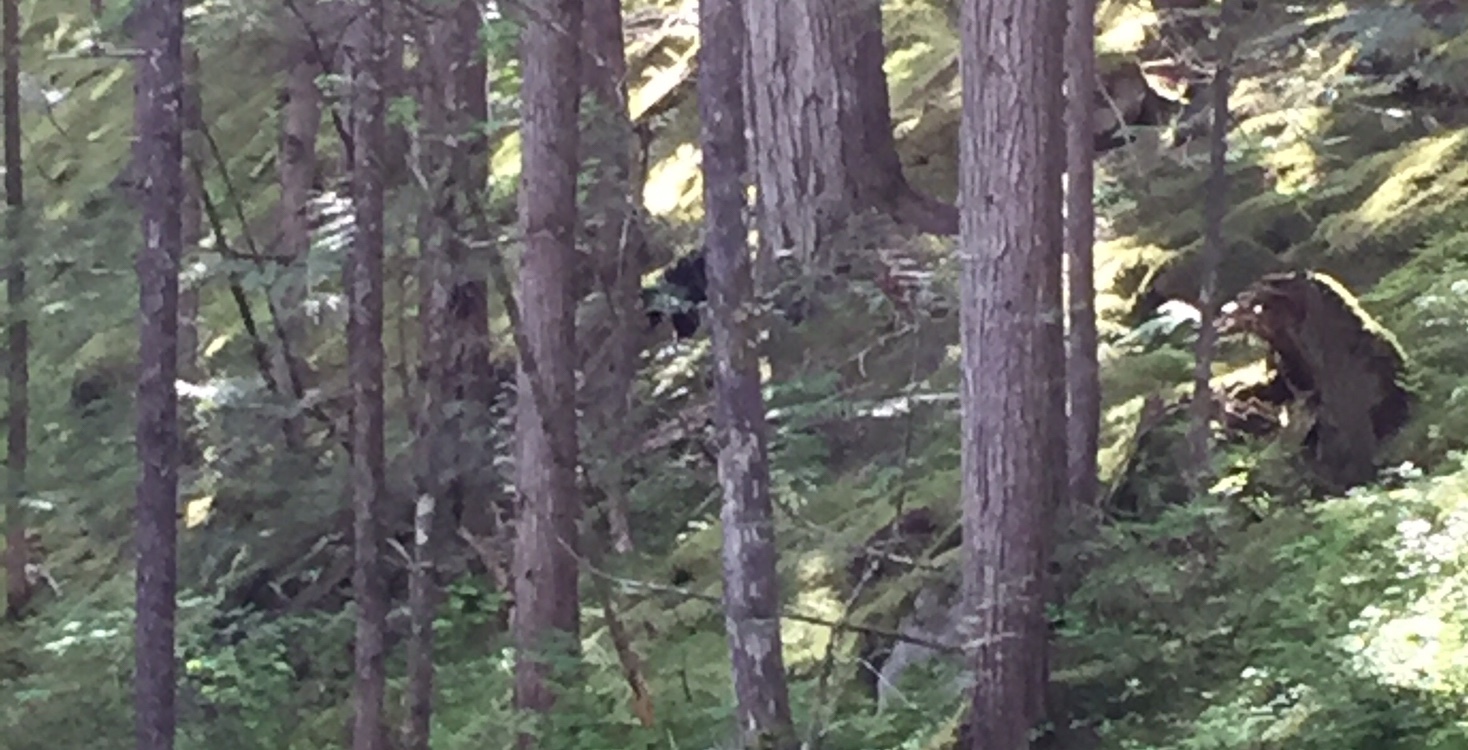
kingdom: Animalia
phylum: Chordata
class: Mammalia
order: Carnivora
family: Ursidae
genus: Ursus
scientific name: Ursus americanus
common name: American black bear
